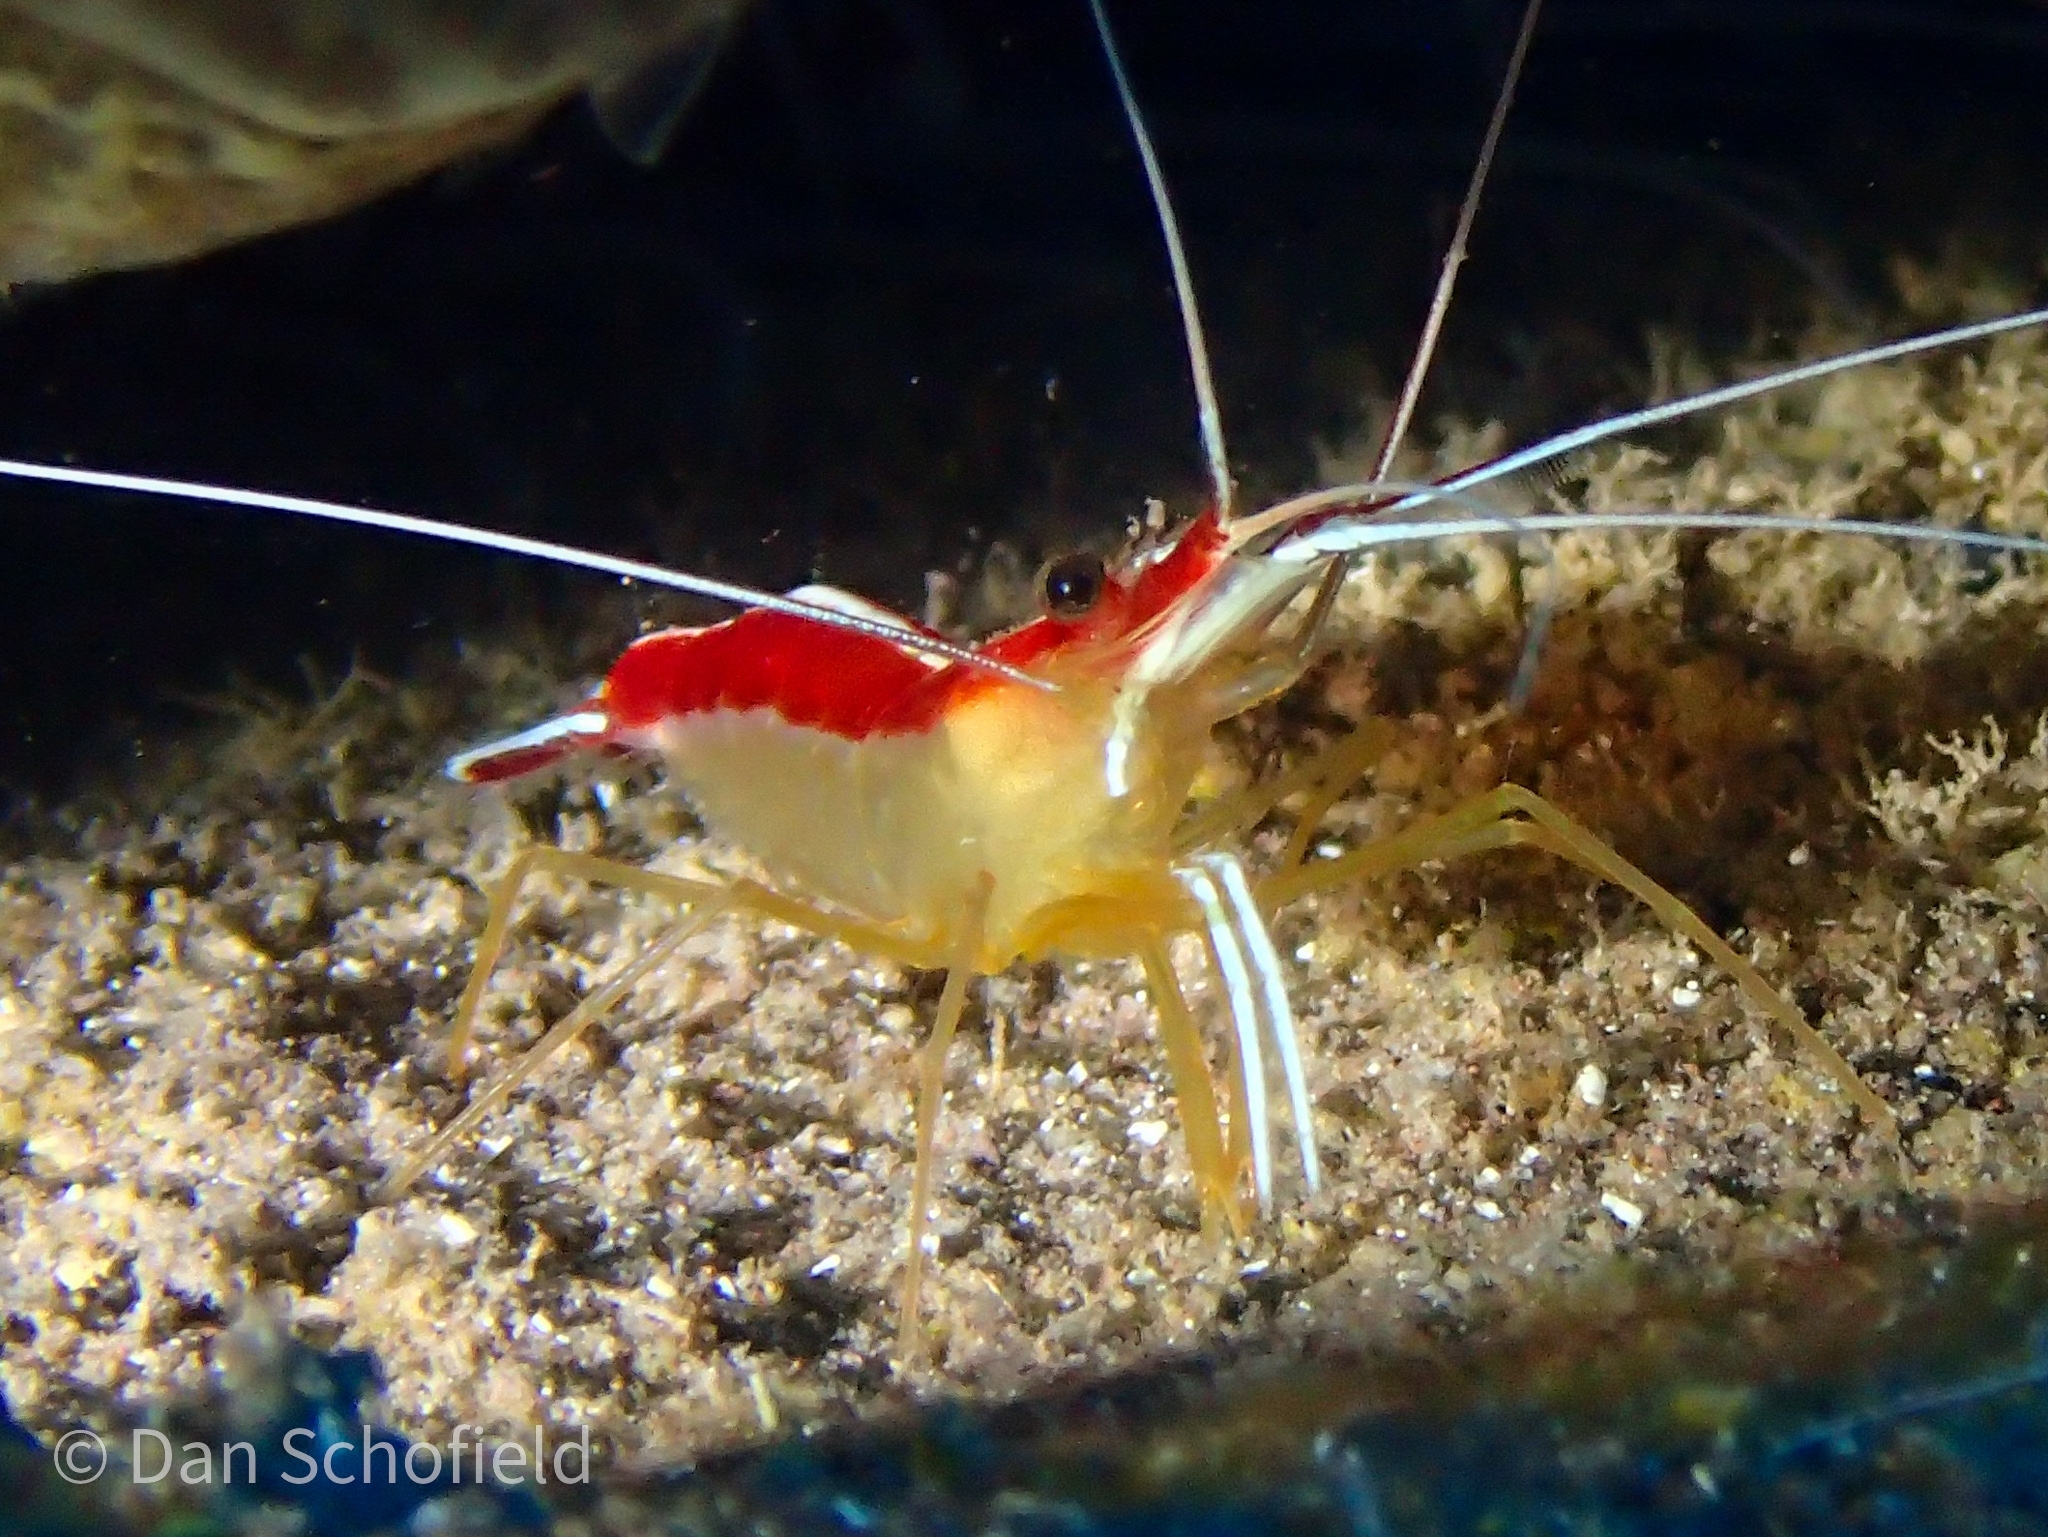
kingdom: Animalia
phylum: Arthropoda
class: Malacostraca
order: Decapoda
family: Lysmatidae
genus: Lysmata
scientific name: Lysmata grabhami
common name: Scarlet-striped cleaning shrimp
